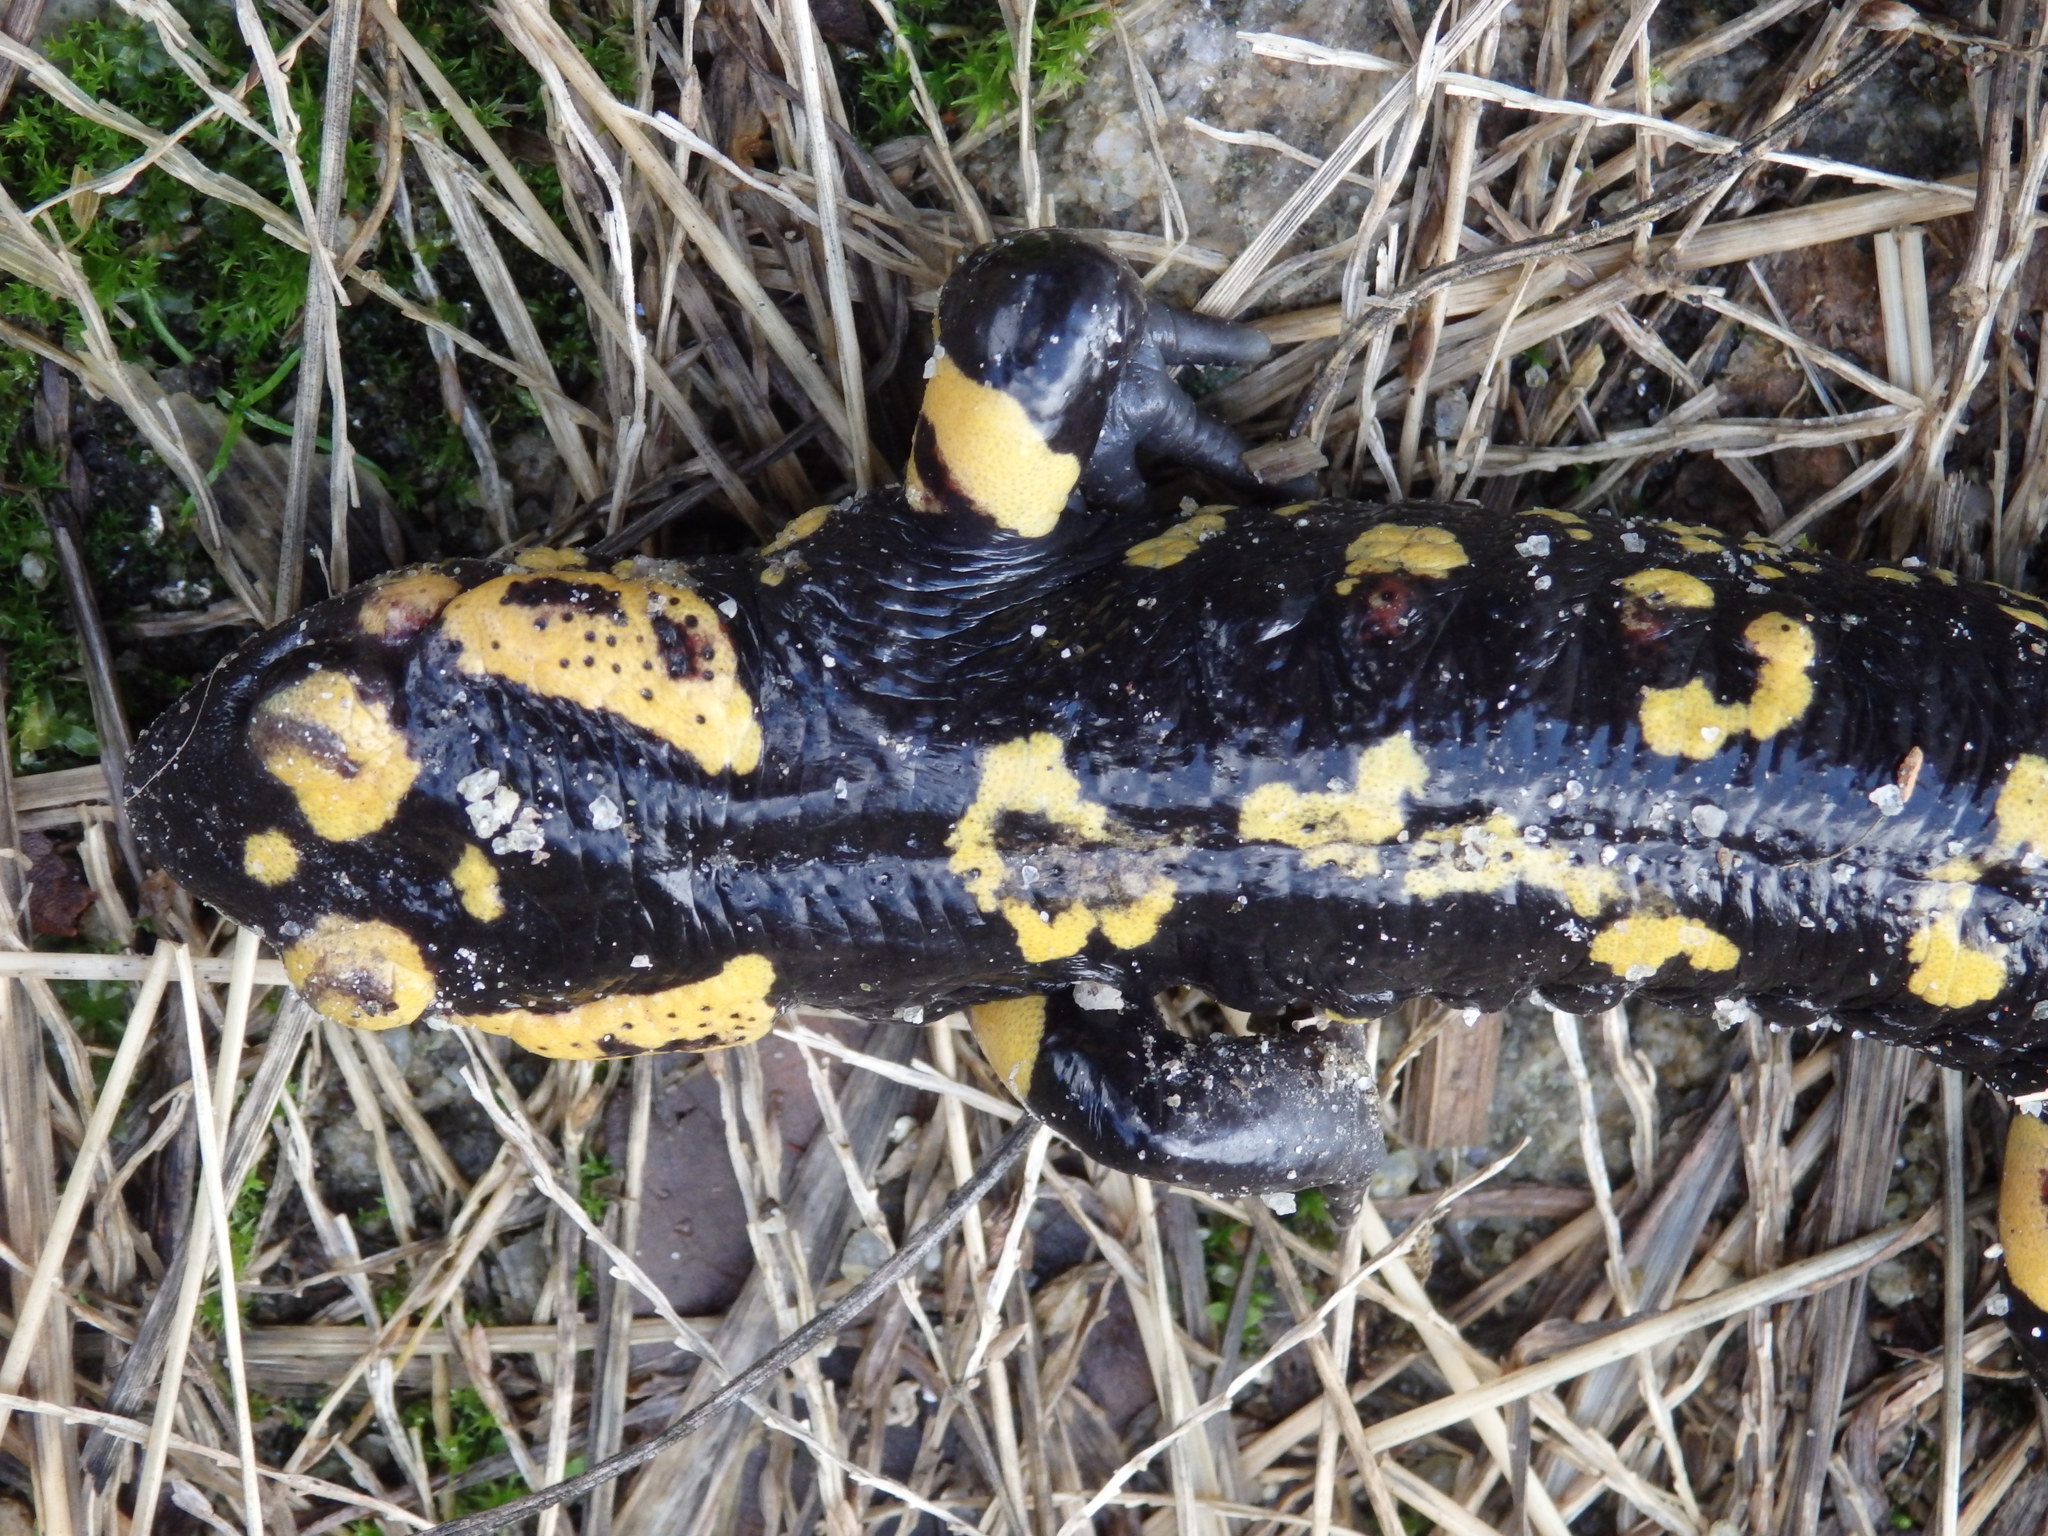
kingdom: Animalia
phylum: Chordata
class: Amphibia
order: Caudata
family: Salamandridae
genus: Salamandra
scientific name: Salamandra salamandra
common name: Fire salamander
